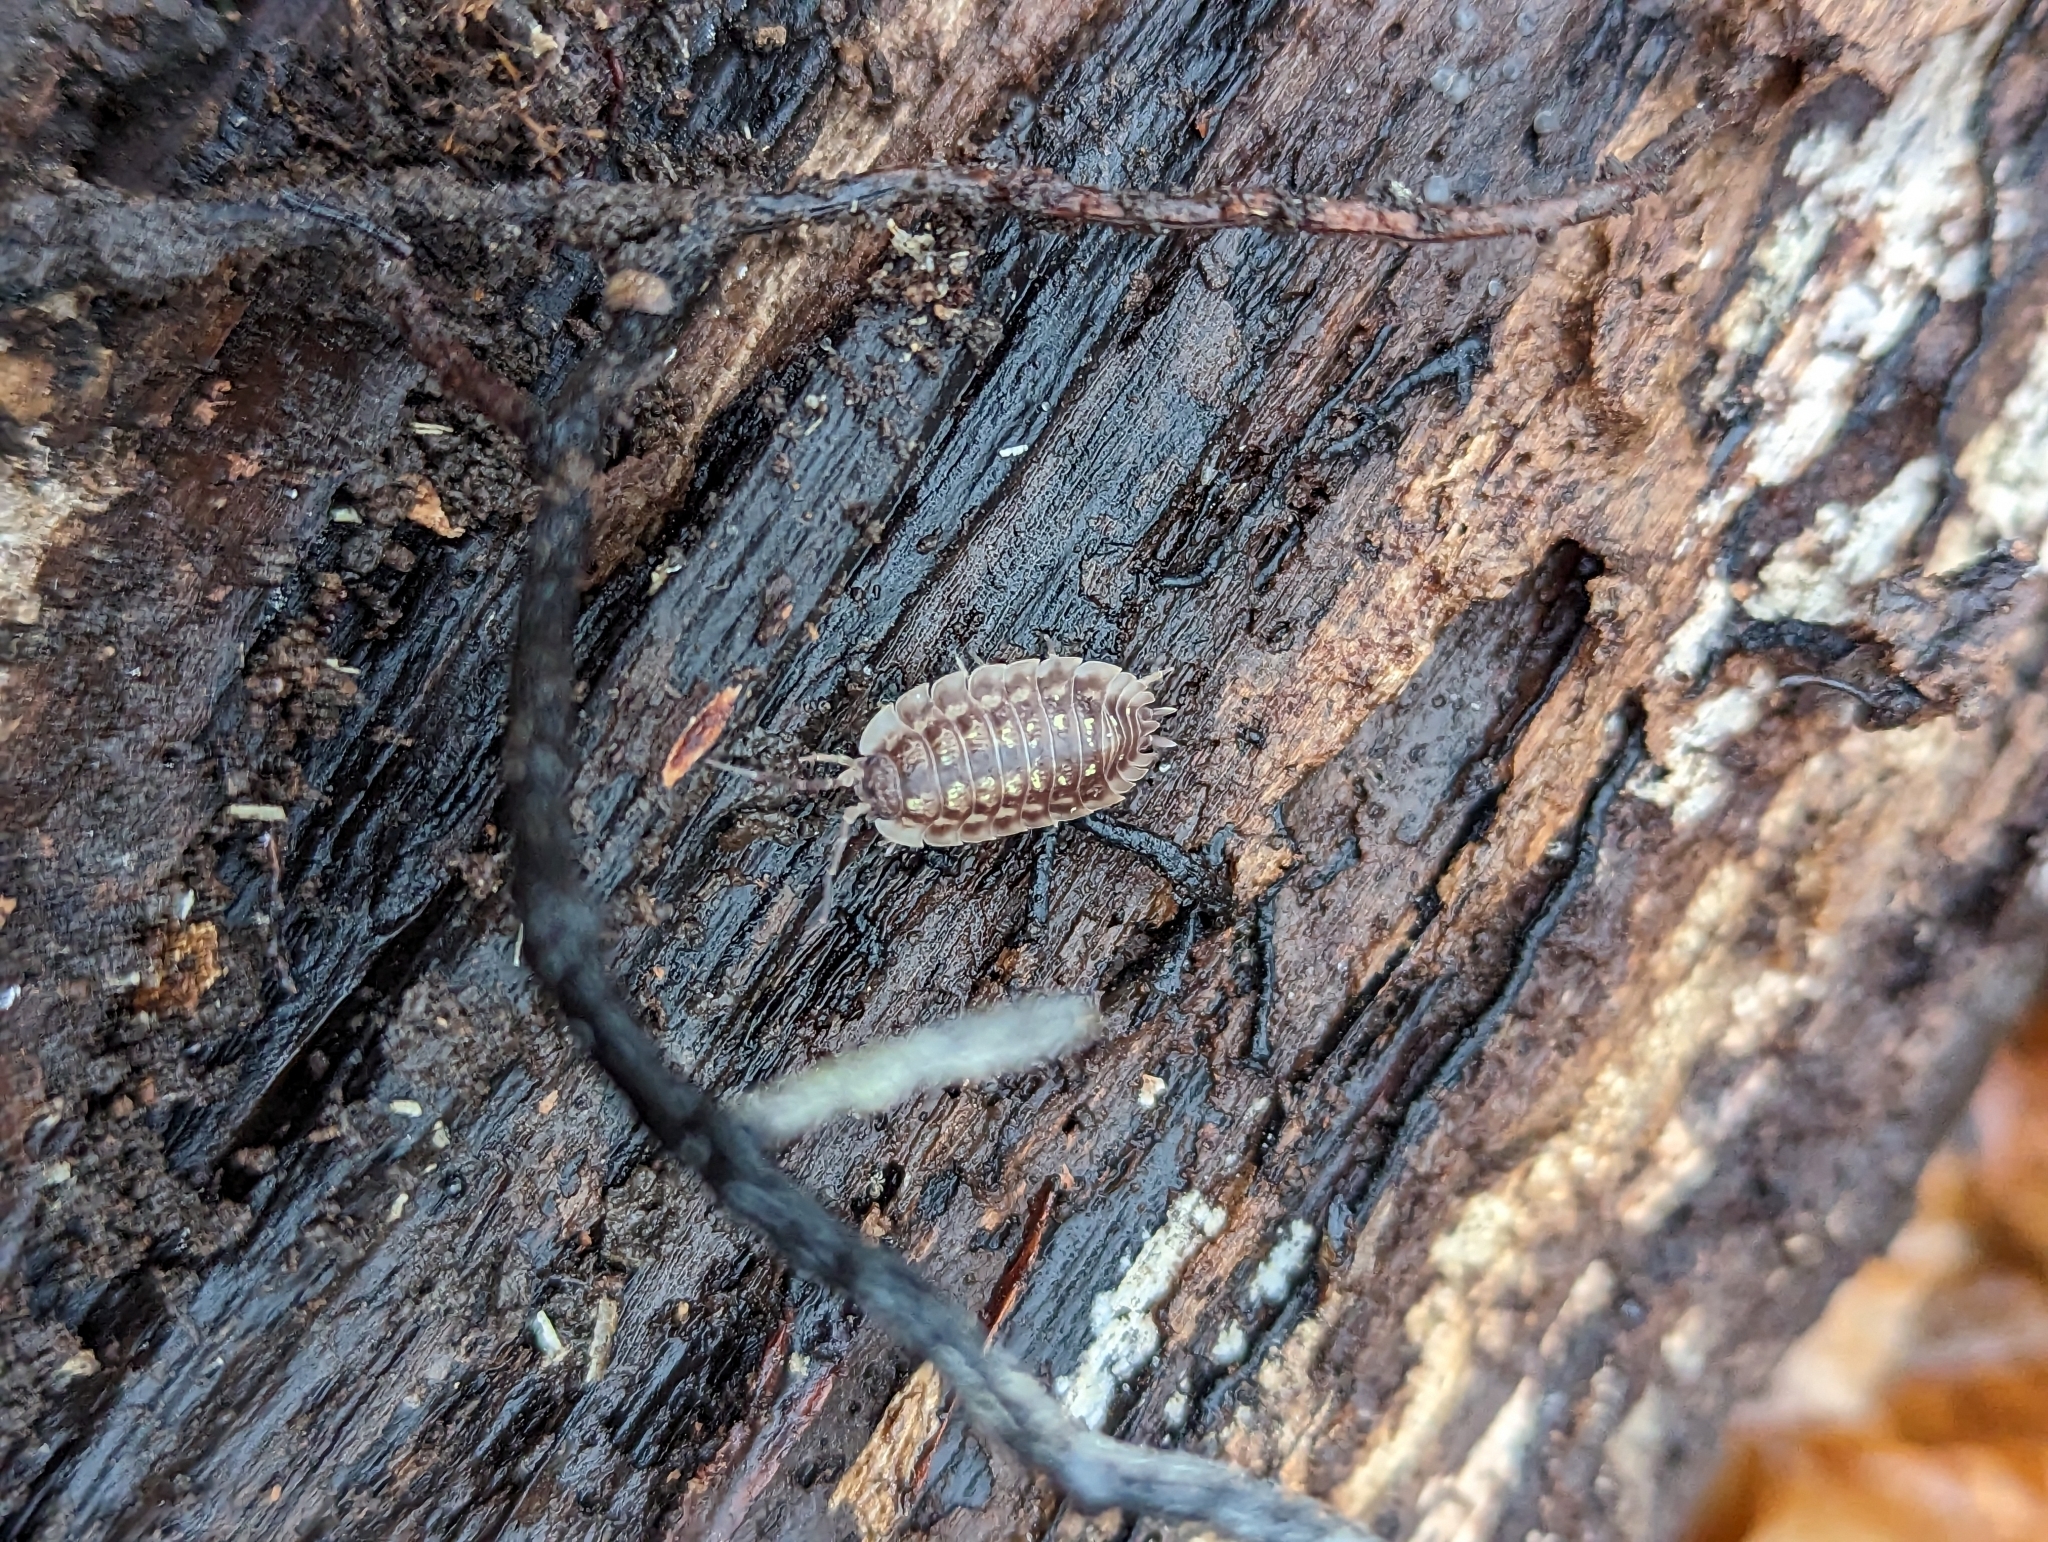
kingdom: Animalia
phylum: Arthropoda
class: Malacostraca
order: Isopoda
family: Oniscidae
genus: Oniscus
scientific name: Oniscus asellus
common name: Common shiny woodlouse
